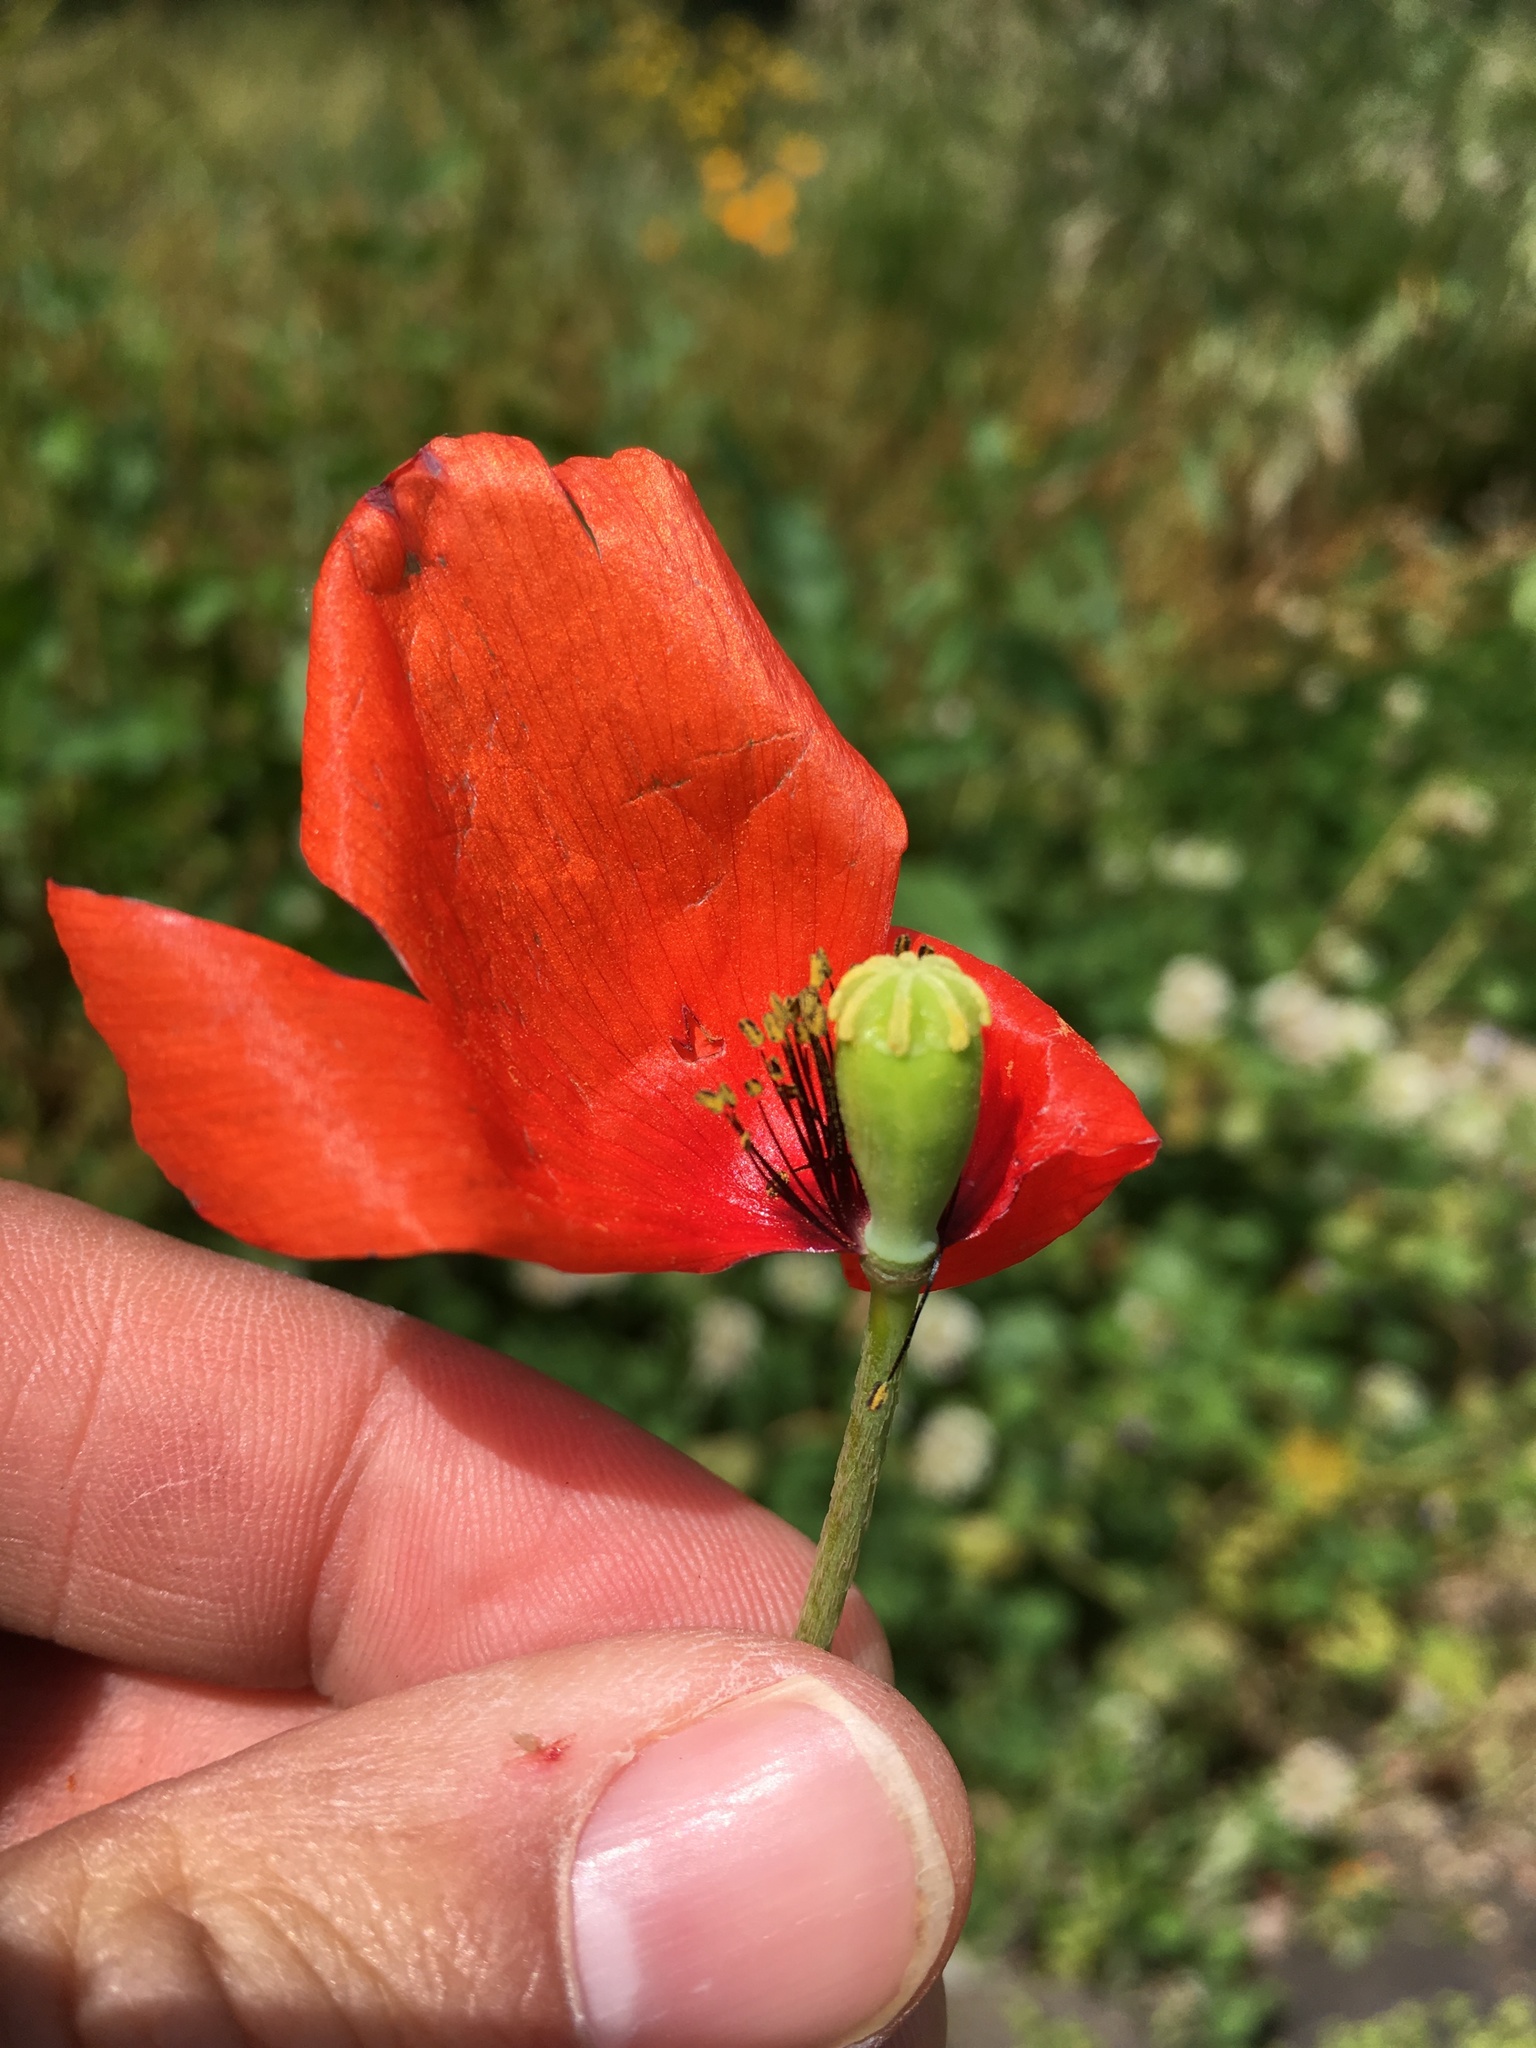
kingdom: Plantae
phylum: Tracheophyta
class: Magnoliopsida
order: Ranunculales
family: Papaveraceae
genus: Papaver
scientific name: Papaver dubium
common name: Long-headed poppy
